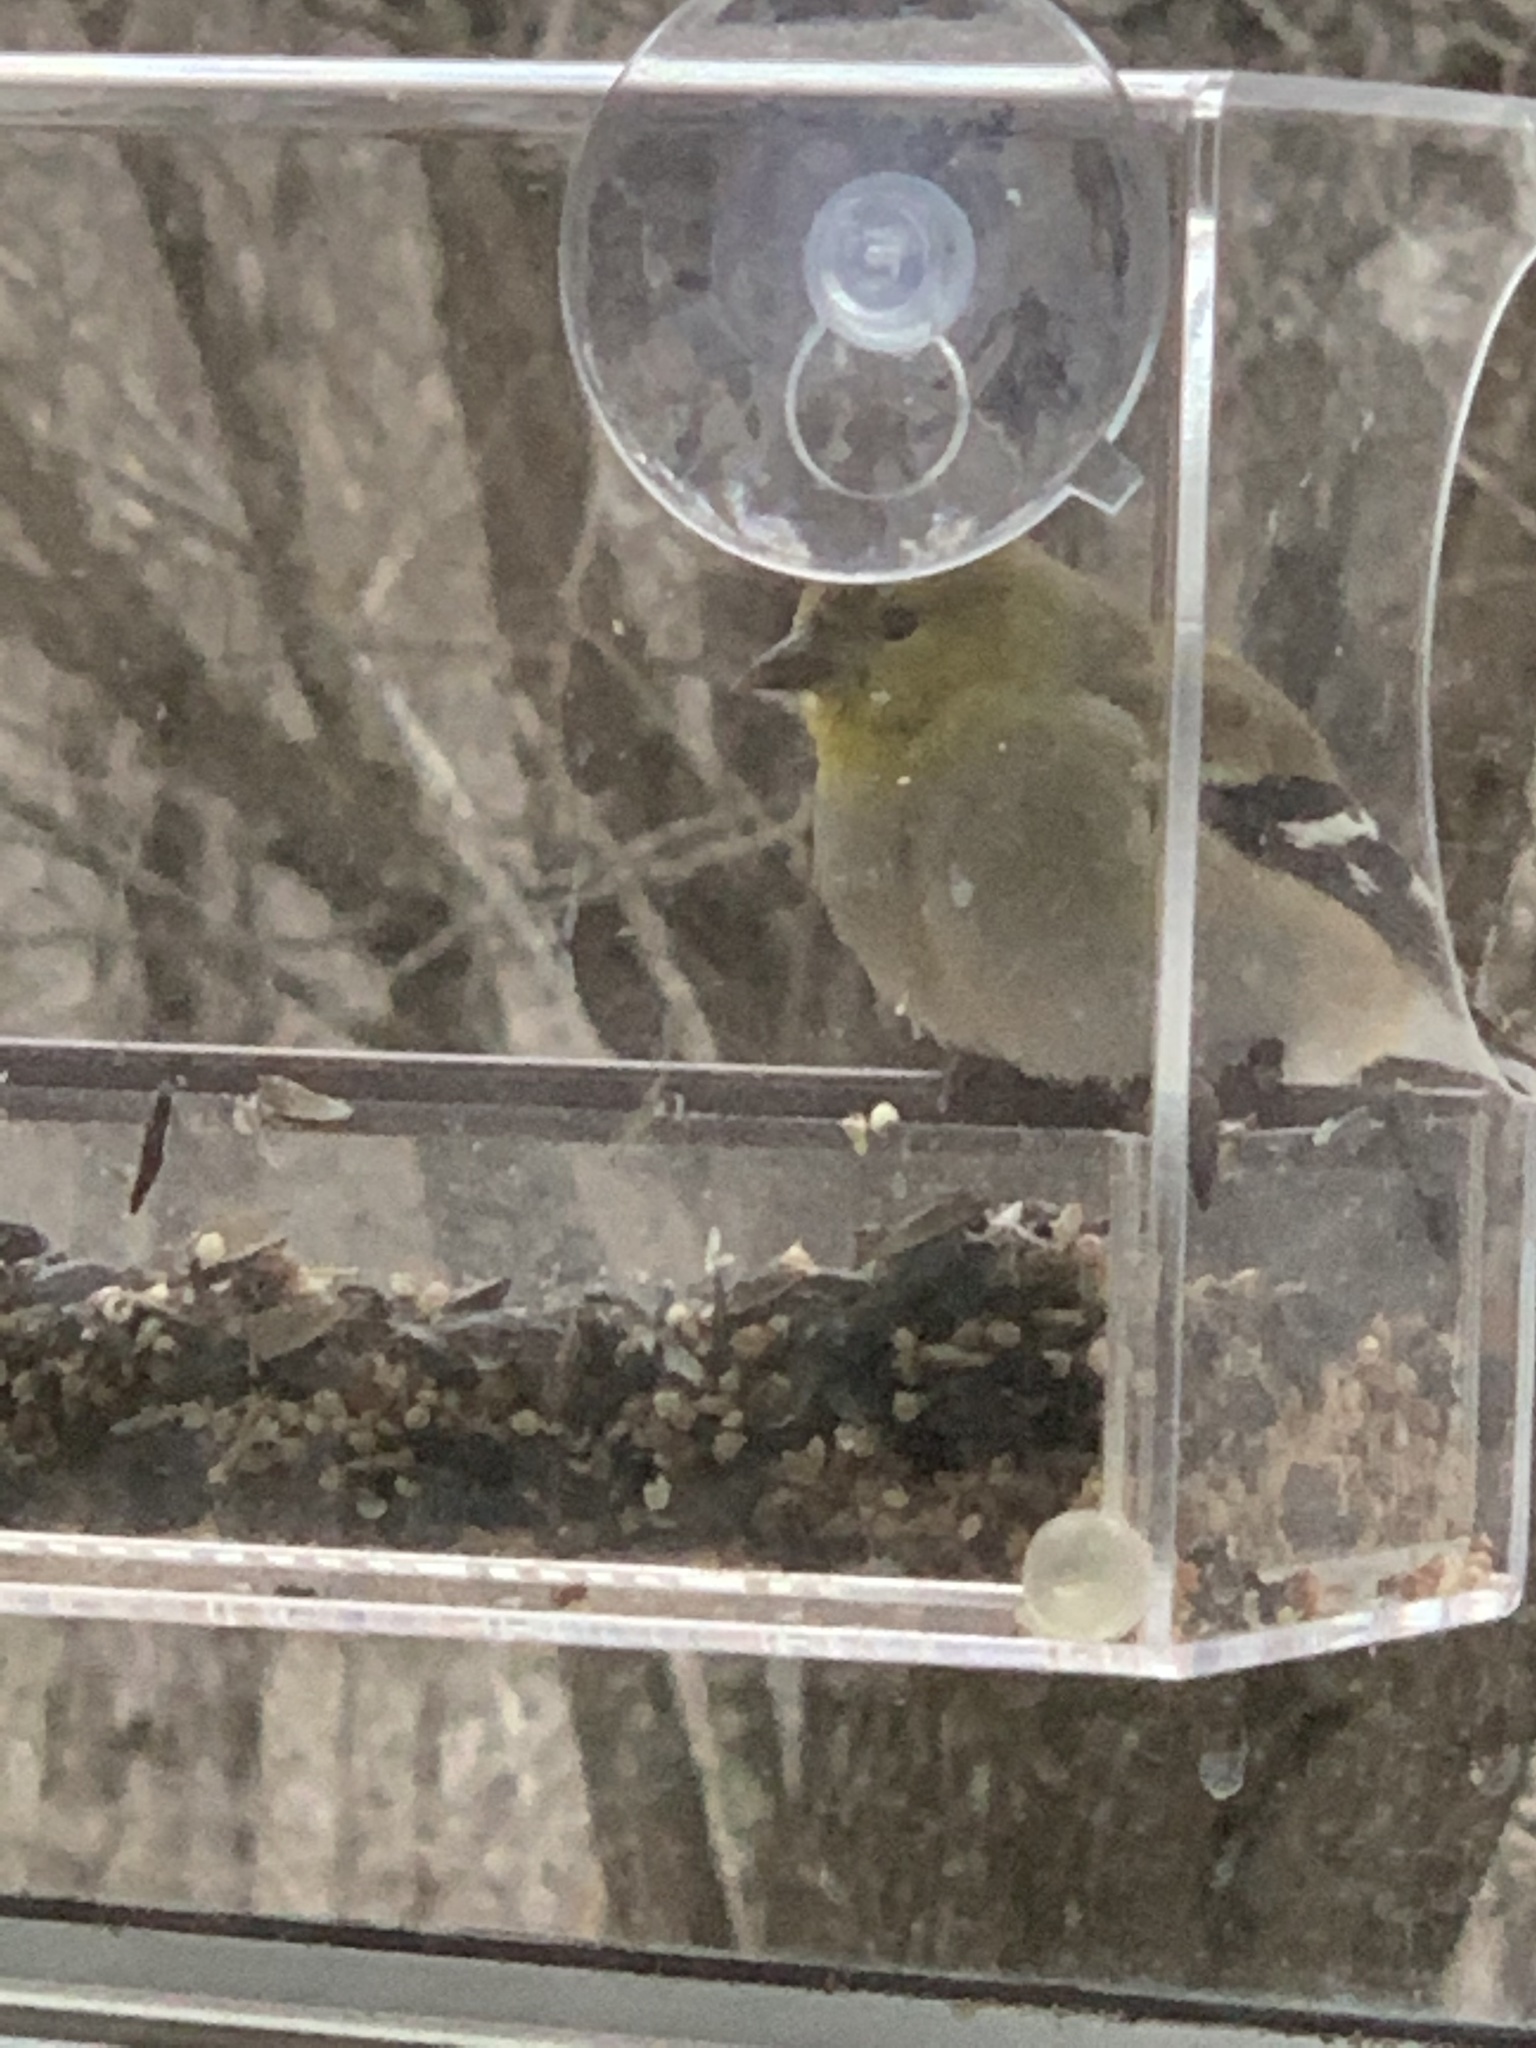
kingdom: Animalia
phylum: Chordata
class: Aves
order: Passeriformes
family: Fringillidae
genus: Spinus
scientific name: Spinus tristis
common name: American goldfinch
